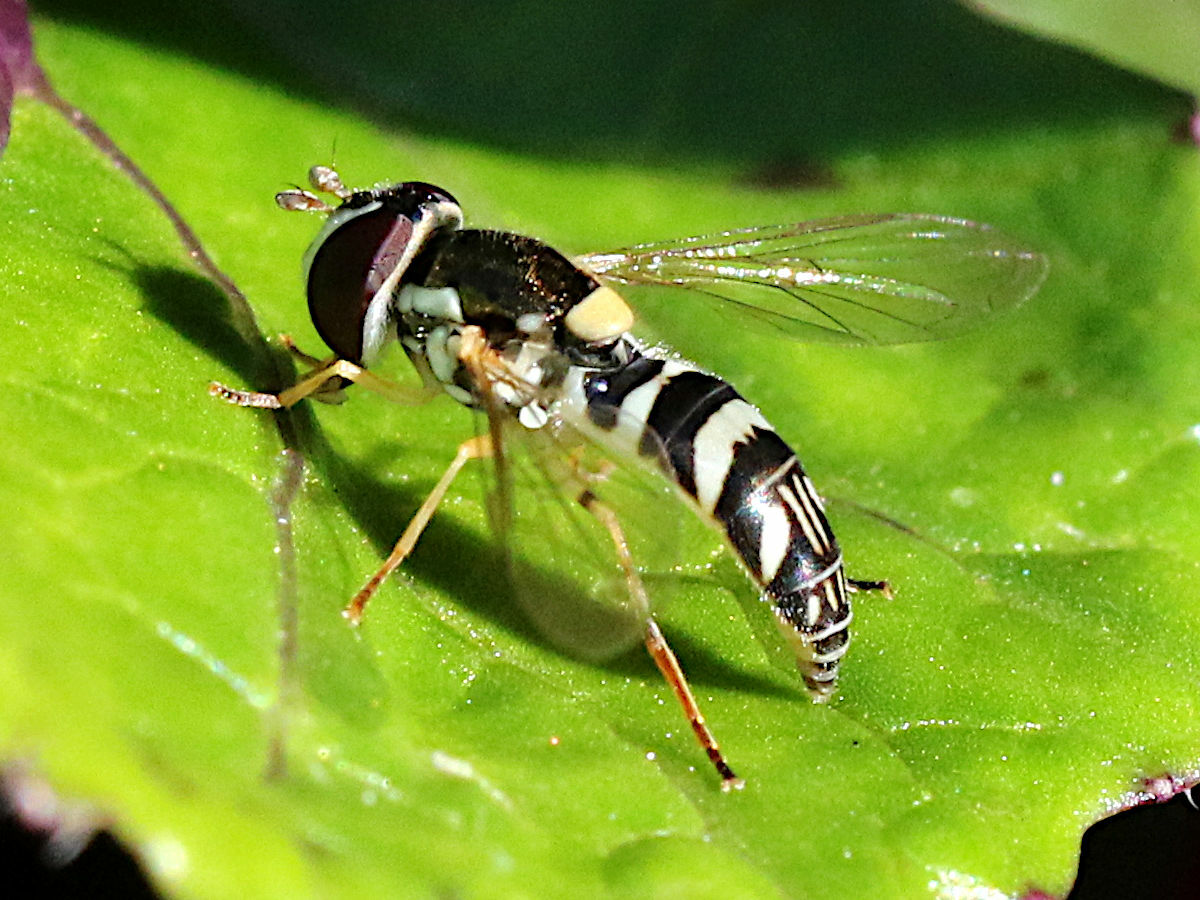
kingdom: Animalia
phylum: Arthropoda
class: Insecta
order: Diptera
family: Syrphidae
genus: Allograpta
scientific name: Allograpta exotica
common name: Syrphid fly
